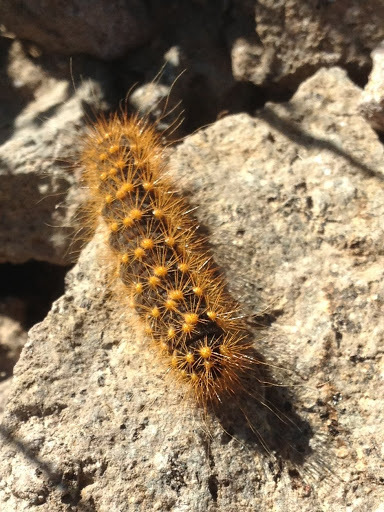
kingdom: Animalia
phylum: Arthropoda
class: Insecta
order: Lepidoptera
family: Noctuidae
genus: Acronicta
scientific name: Acronicta lupini
